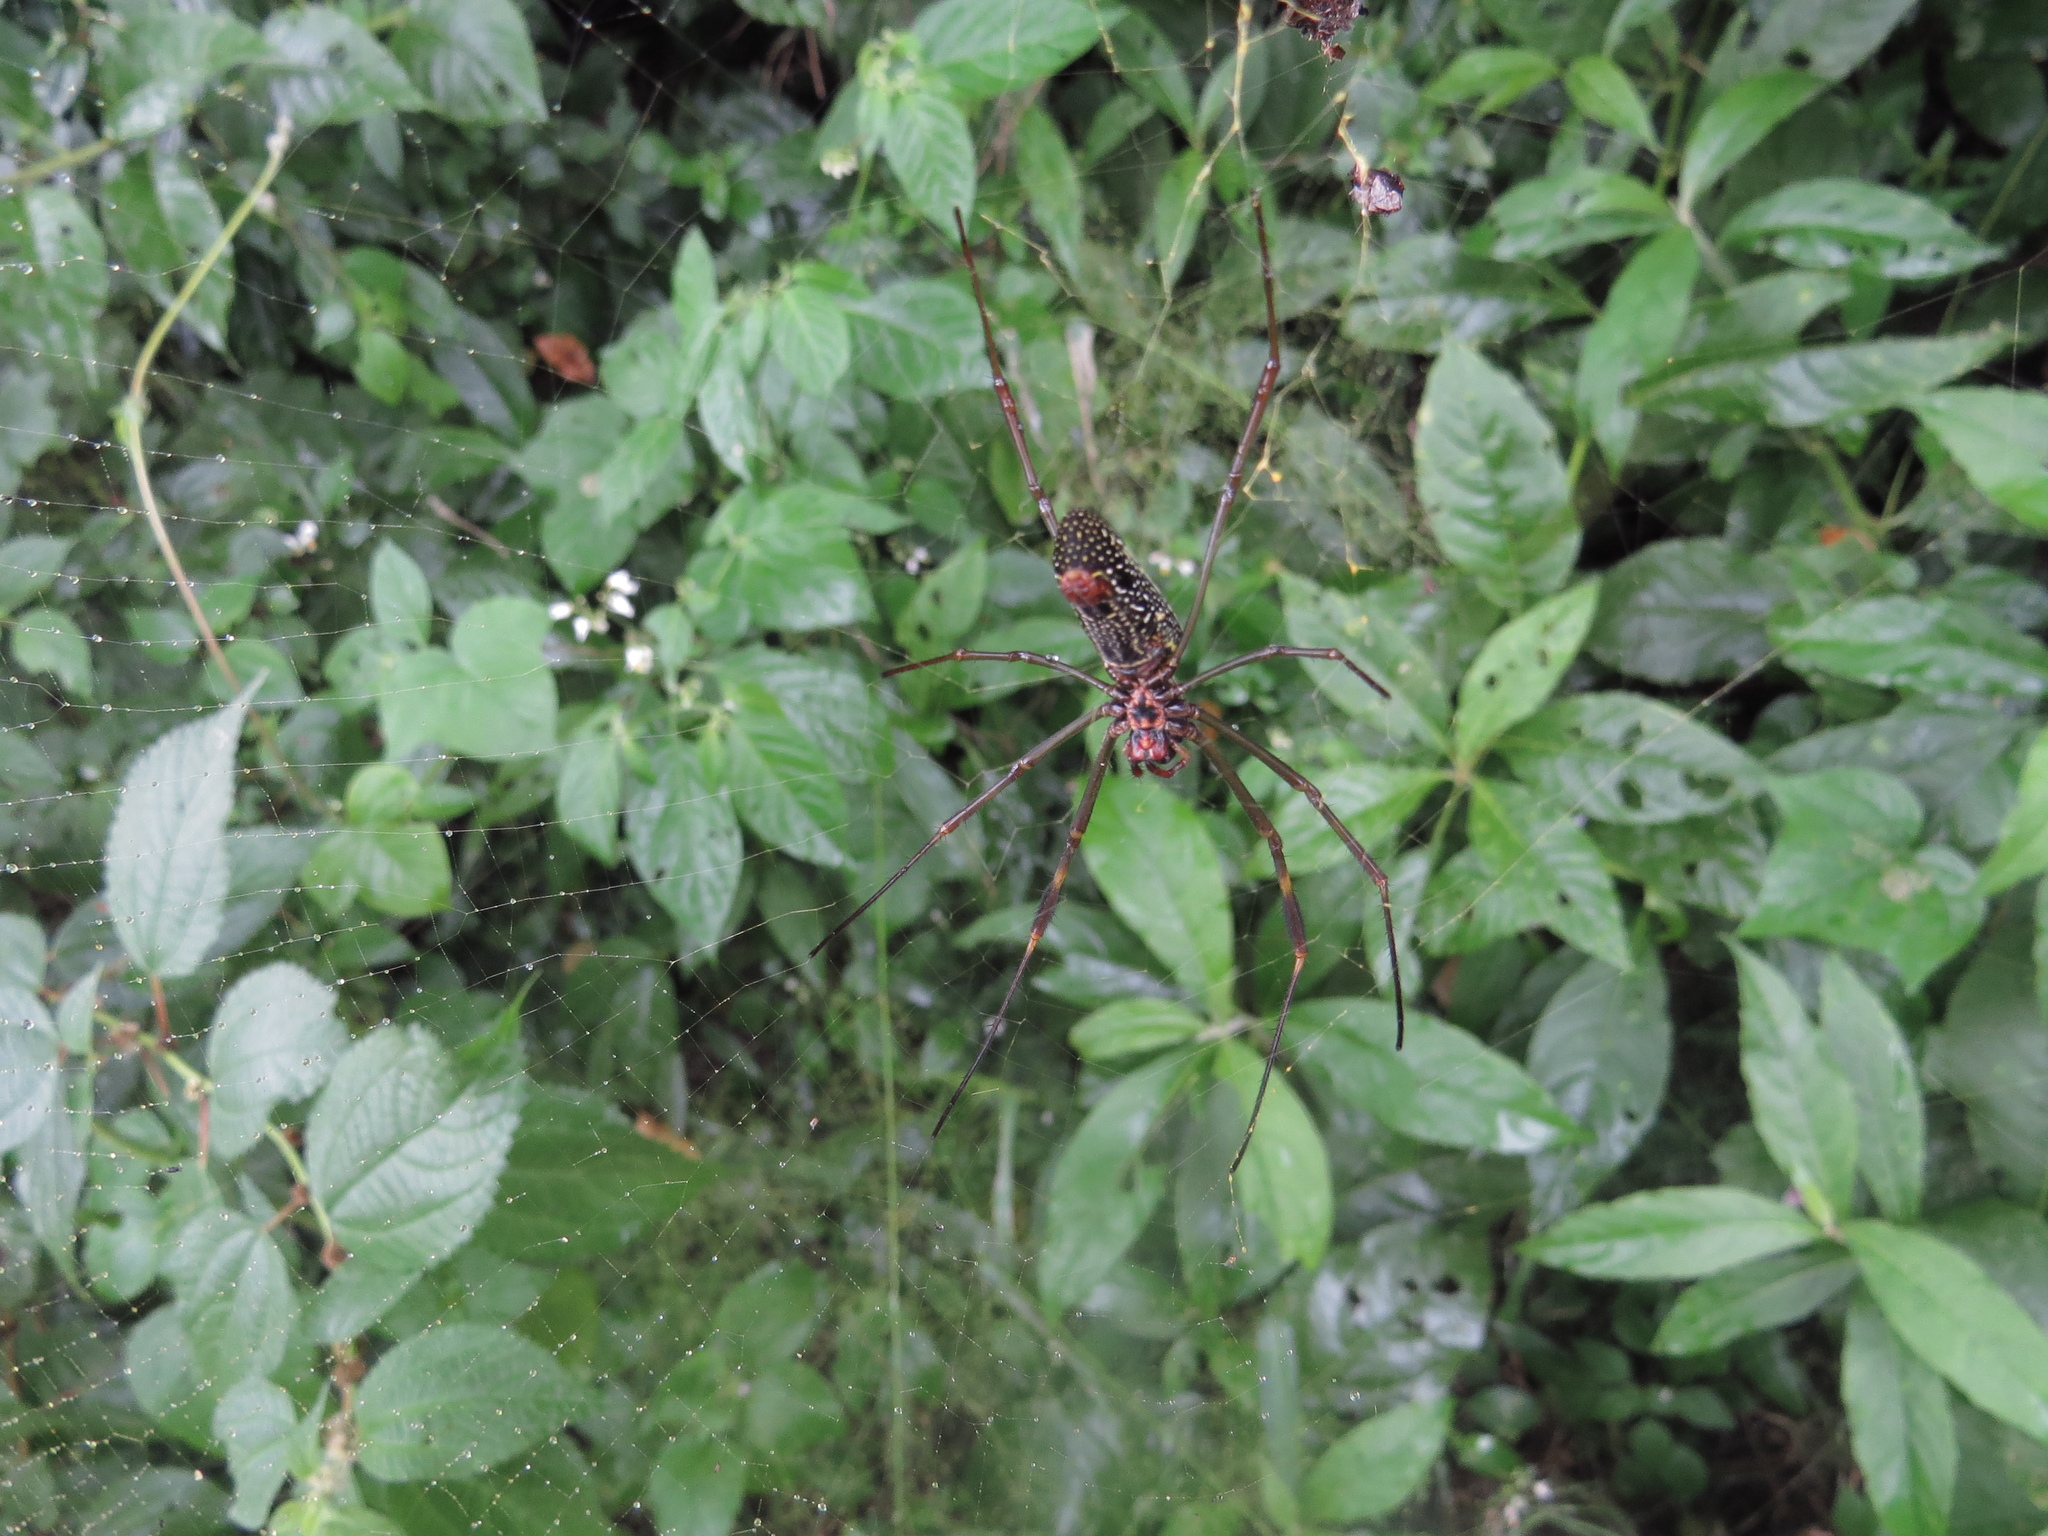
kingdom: Animalia
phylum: Arthropoda
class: Arachnida
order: Araneae
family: Araneidae
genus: Trichonephila
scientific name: Trichonephila clavipes
